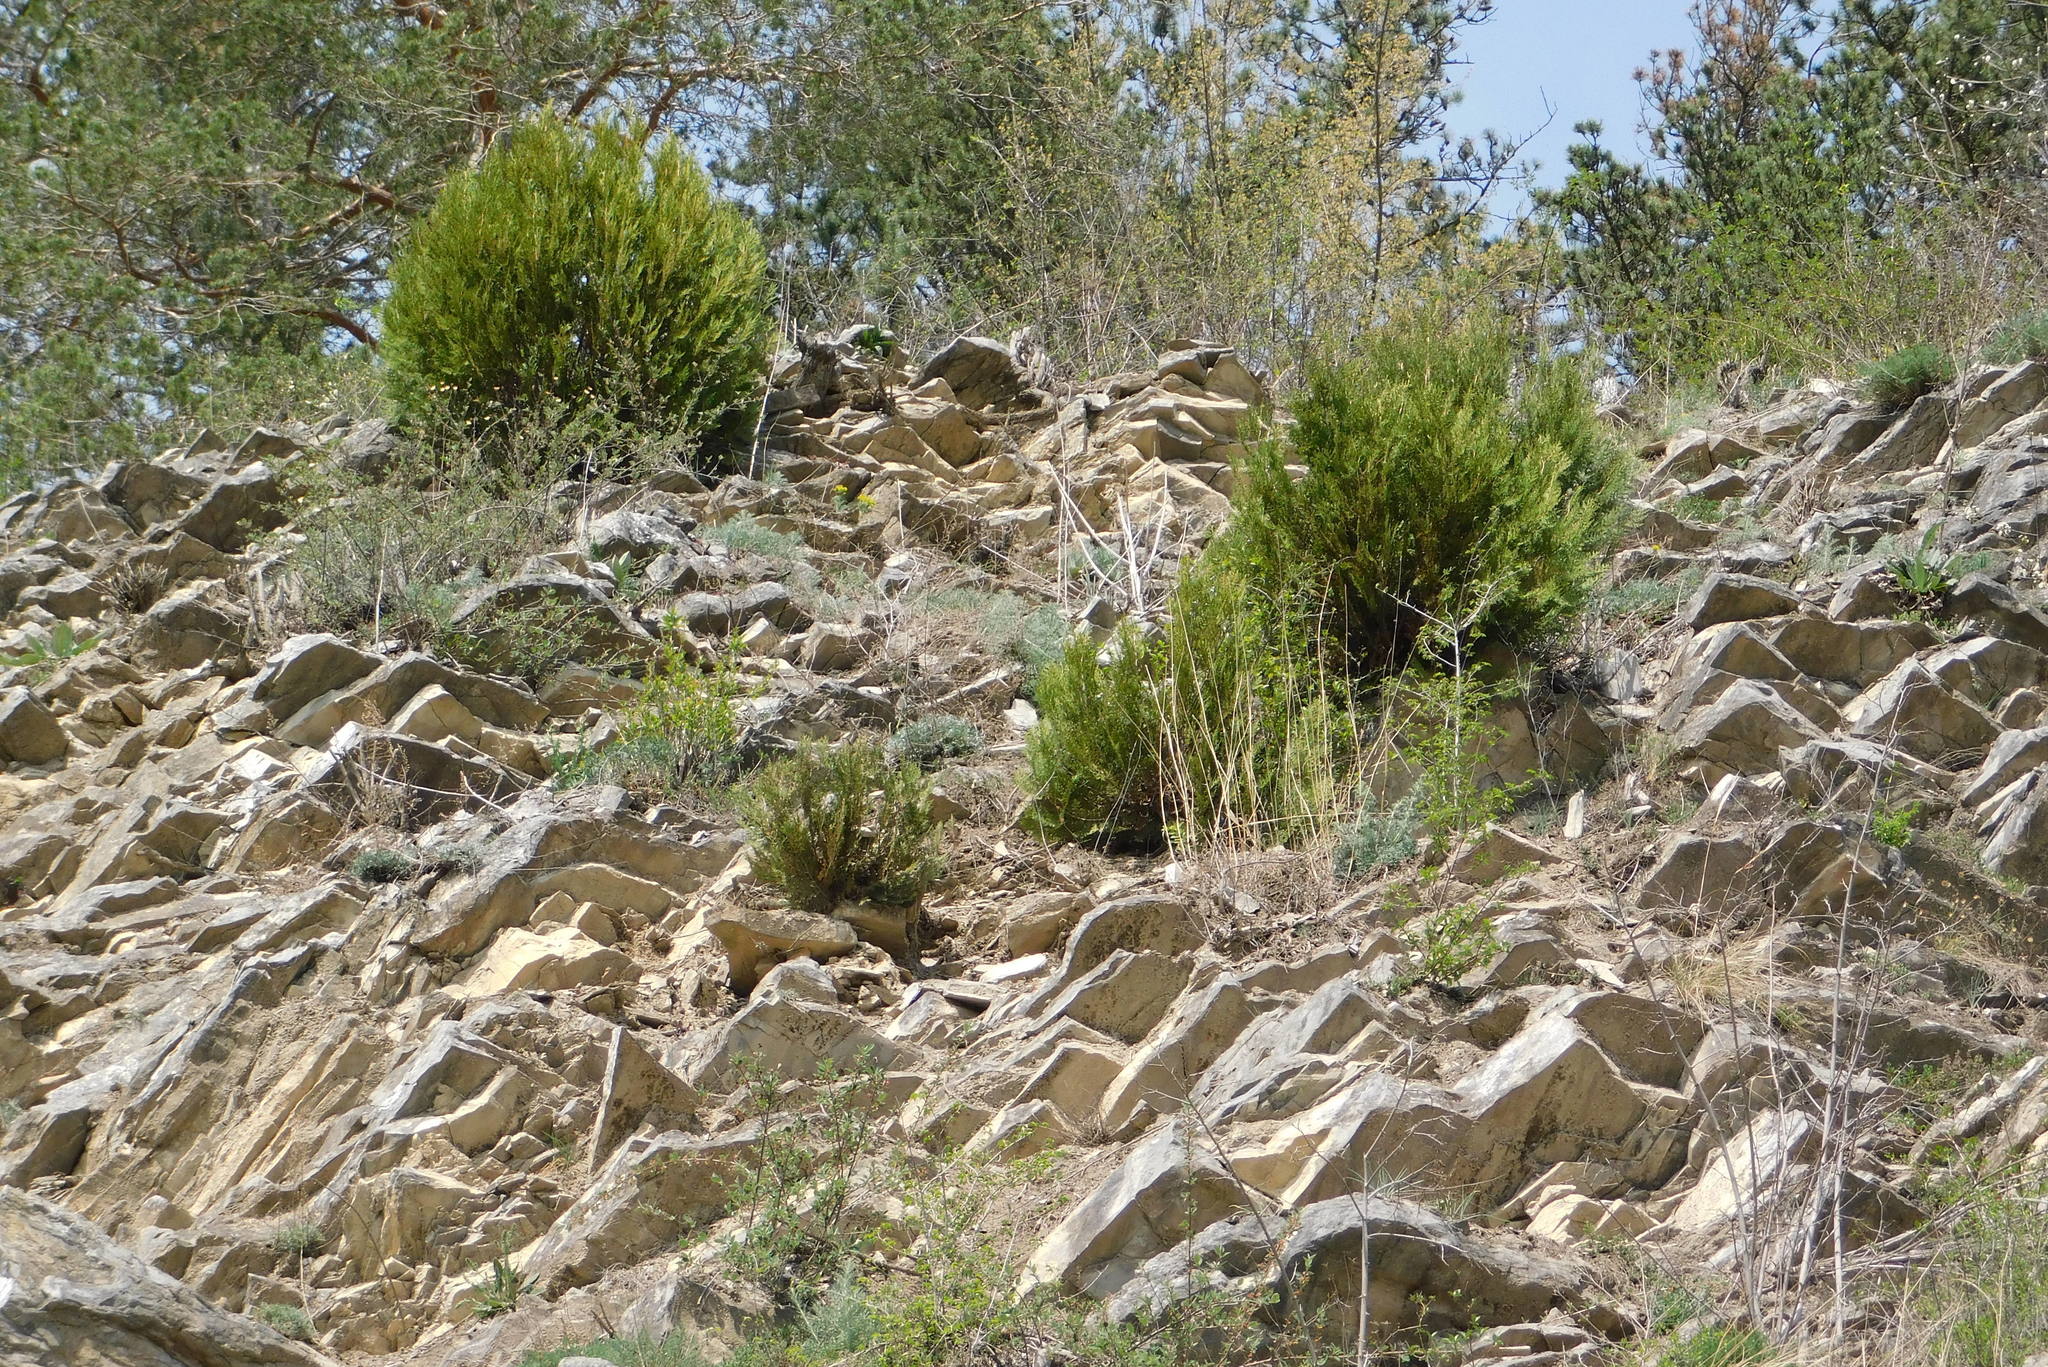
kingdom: Plantae
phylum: Tracheophyta
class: Pinopsida
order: Pinales
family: Cupressaceae
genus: Platycladus
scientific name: Platycladus orientalis
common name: Chinese thuja
